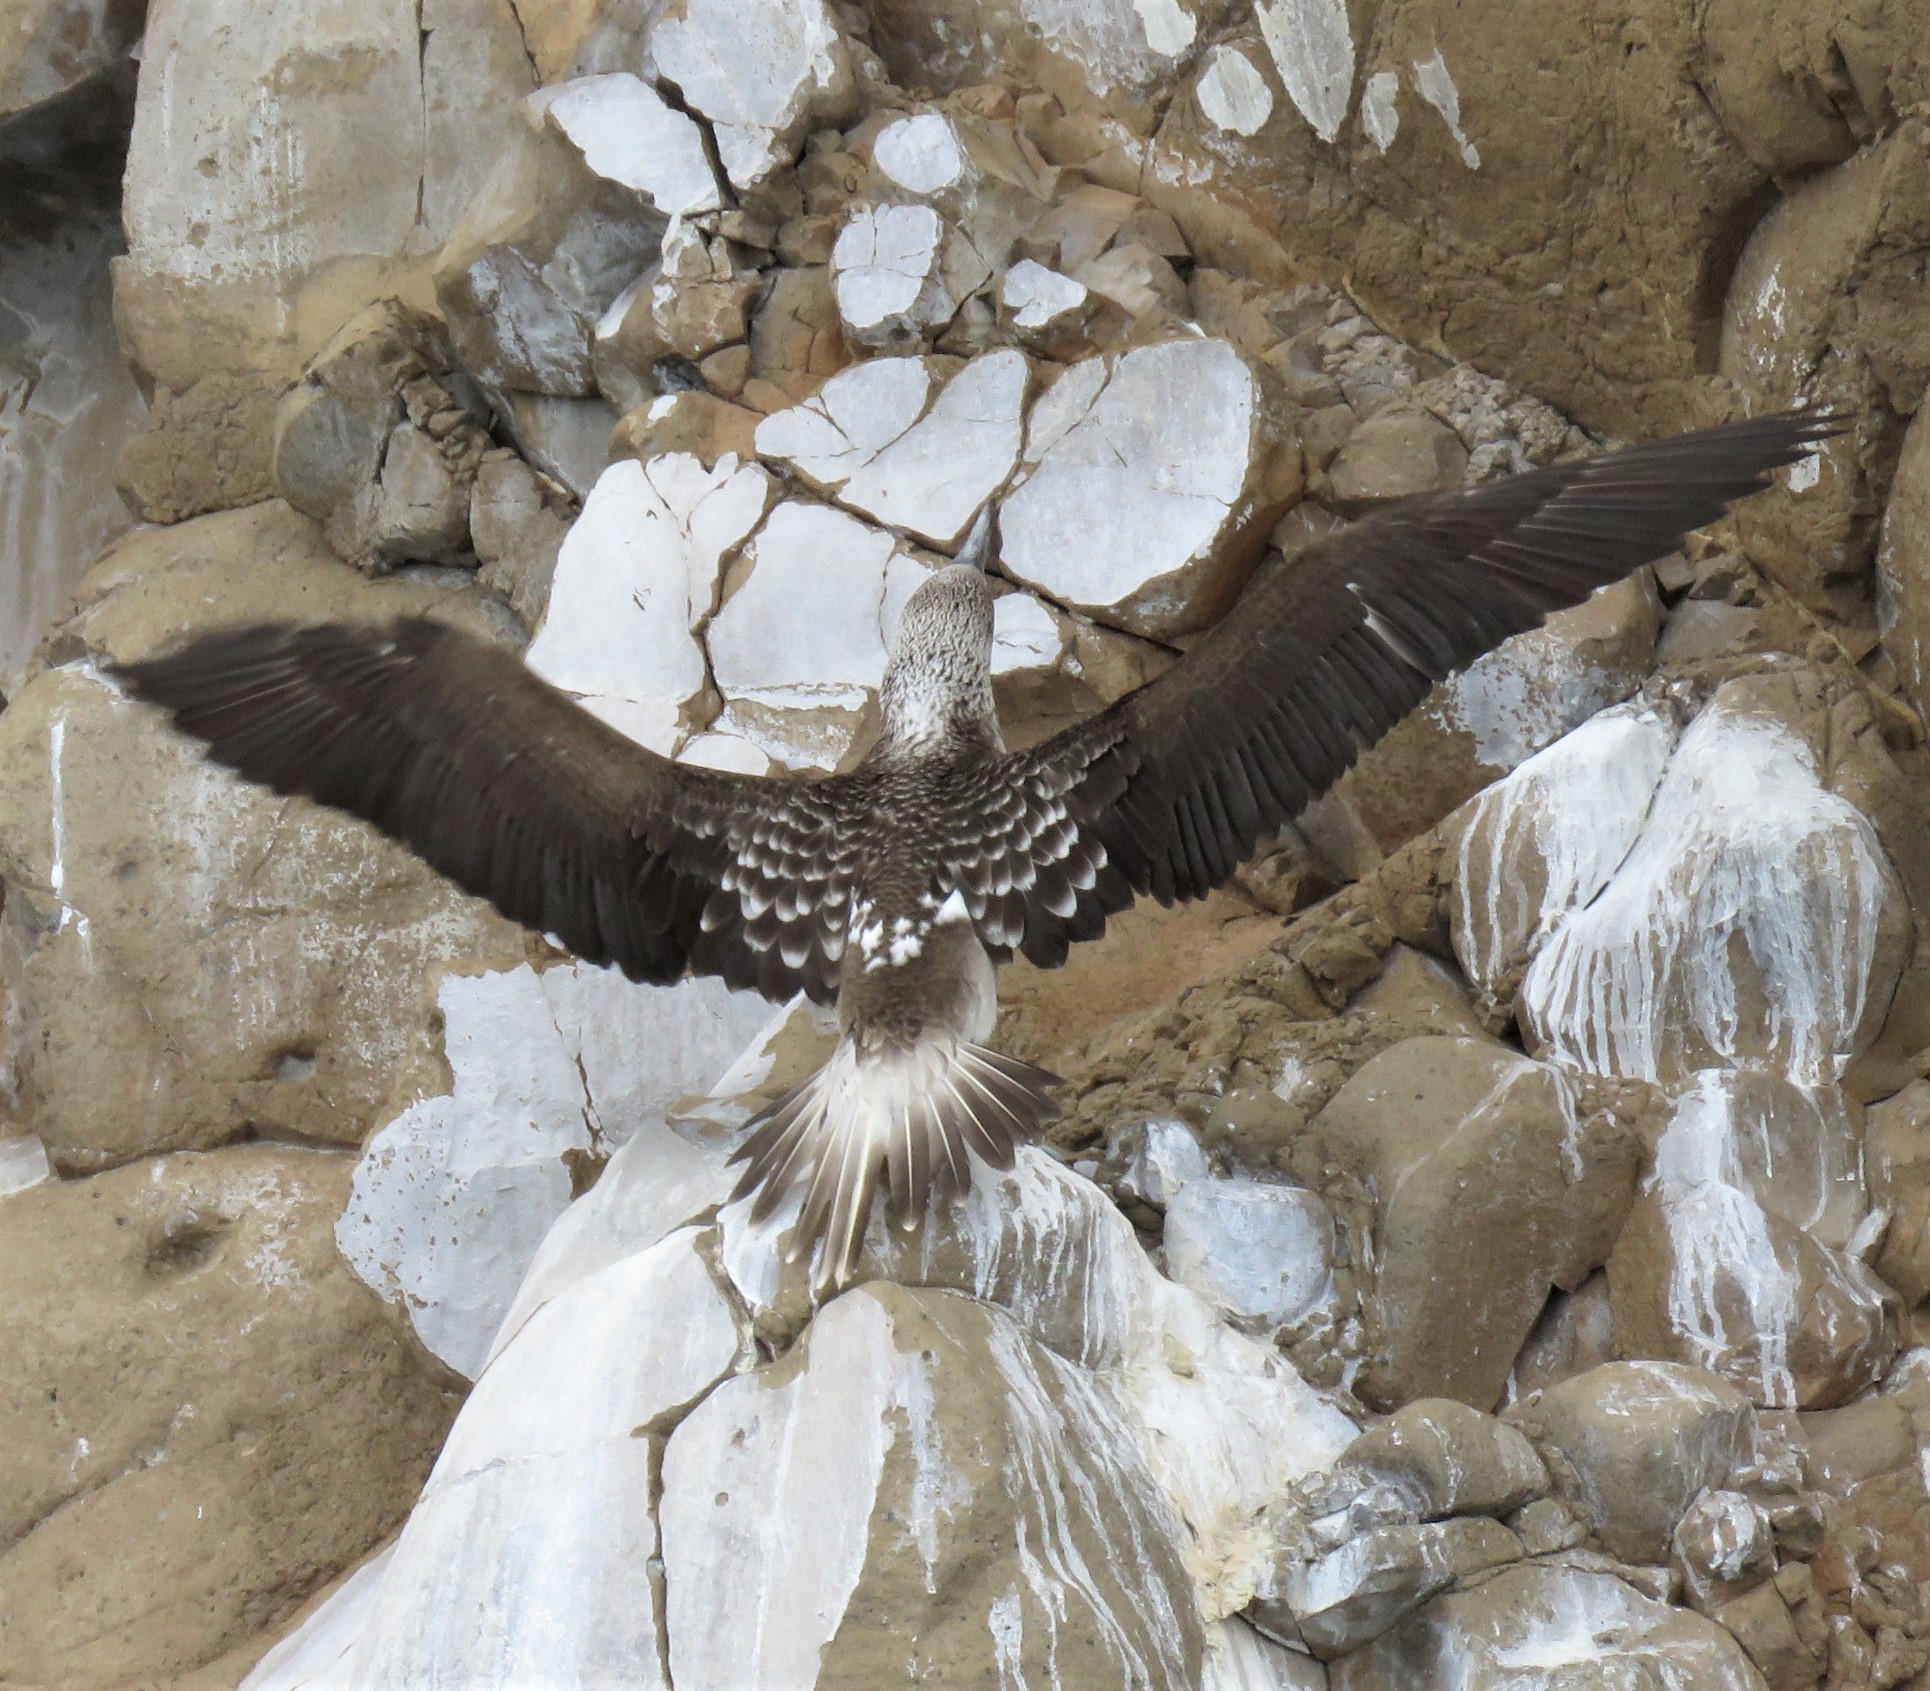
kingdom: Animalia
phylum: Chordata
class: Aves
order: Suliformes
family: Sulidae
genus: Sula
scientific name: Sula nebouxii
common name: Blue-footed booby
